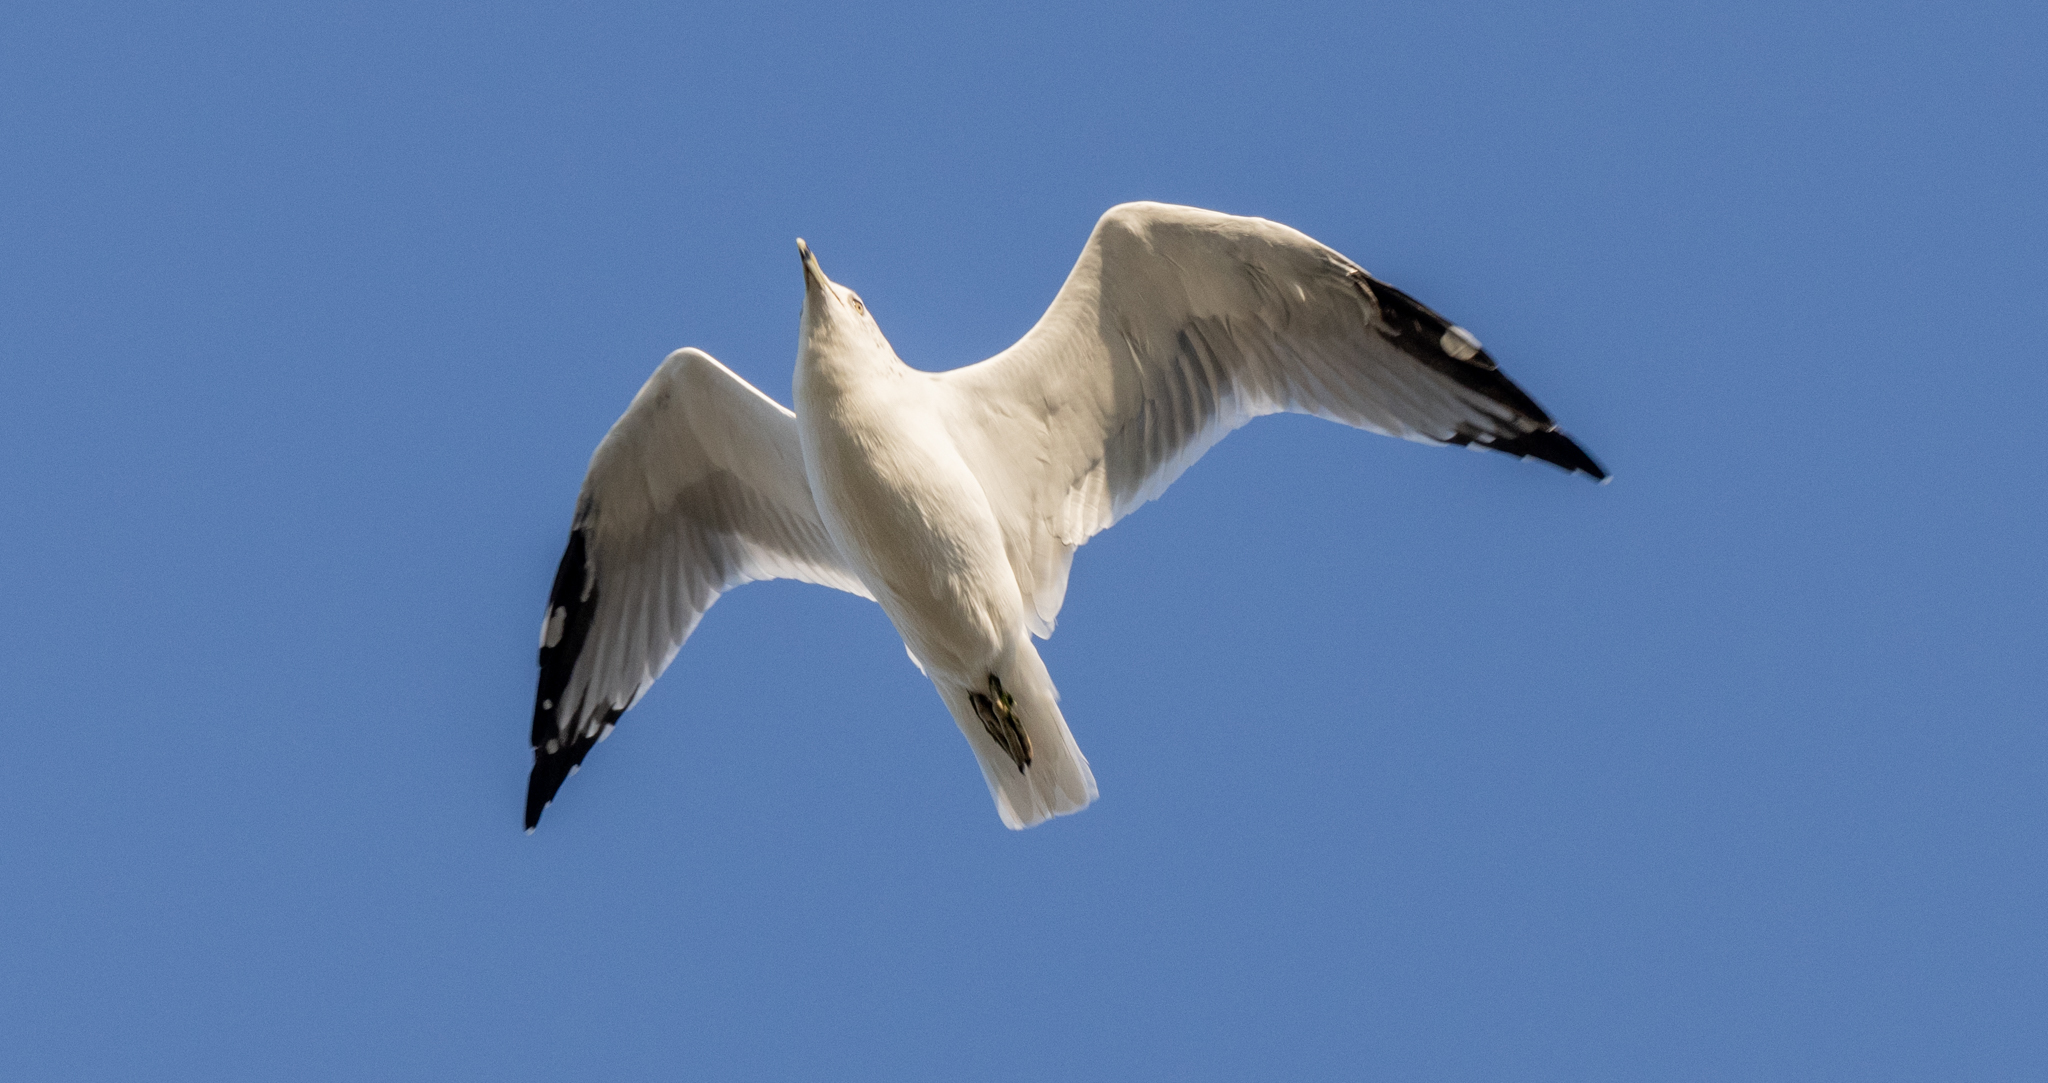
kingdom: Animalia
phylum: Chordata
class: Aves
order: Charadriiformes
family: Laridae
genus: Larus
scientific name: Larus delawarensis
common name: Ring-billed gull
